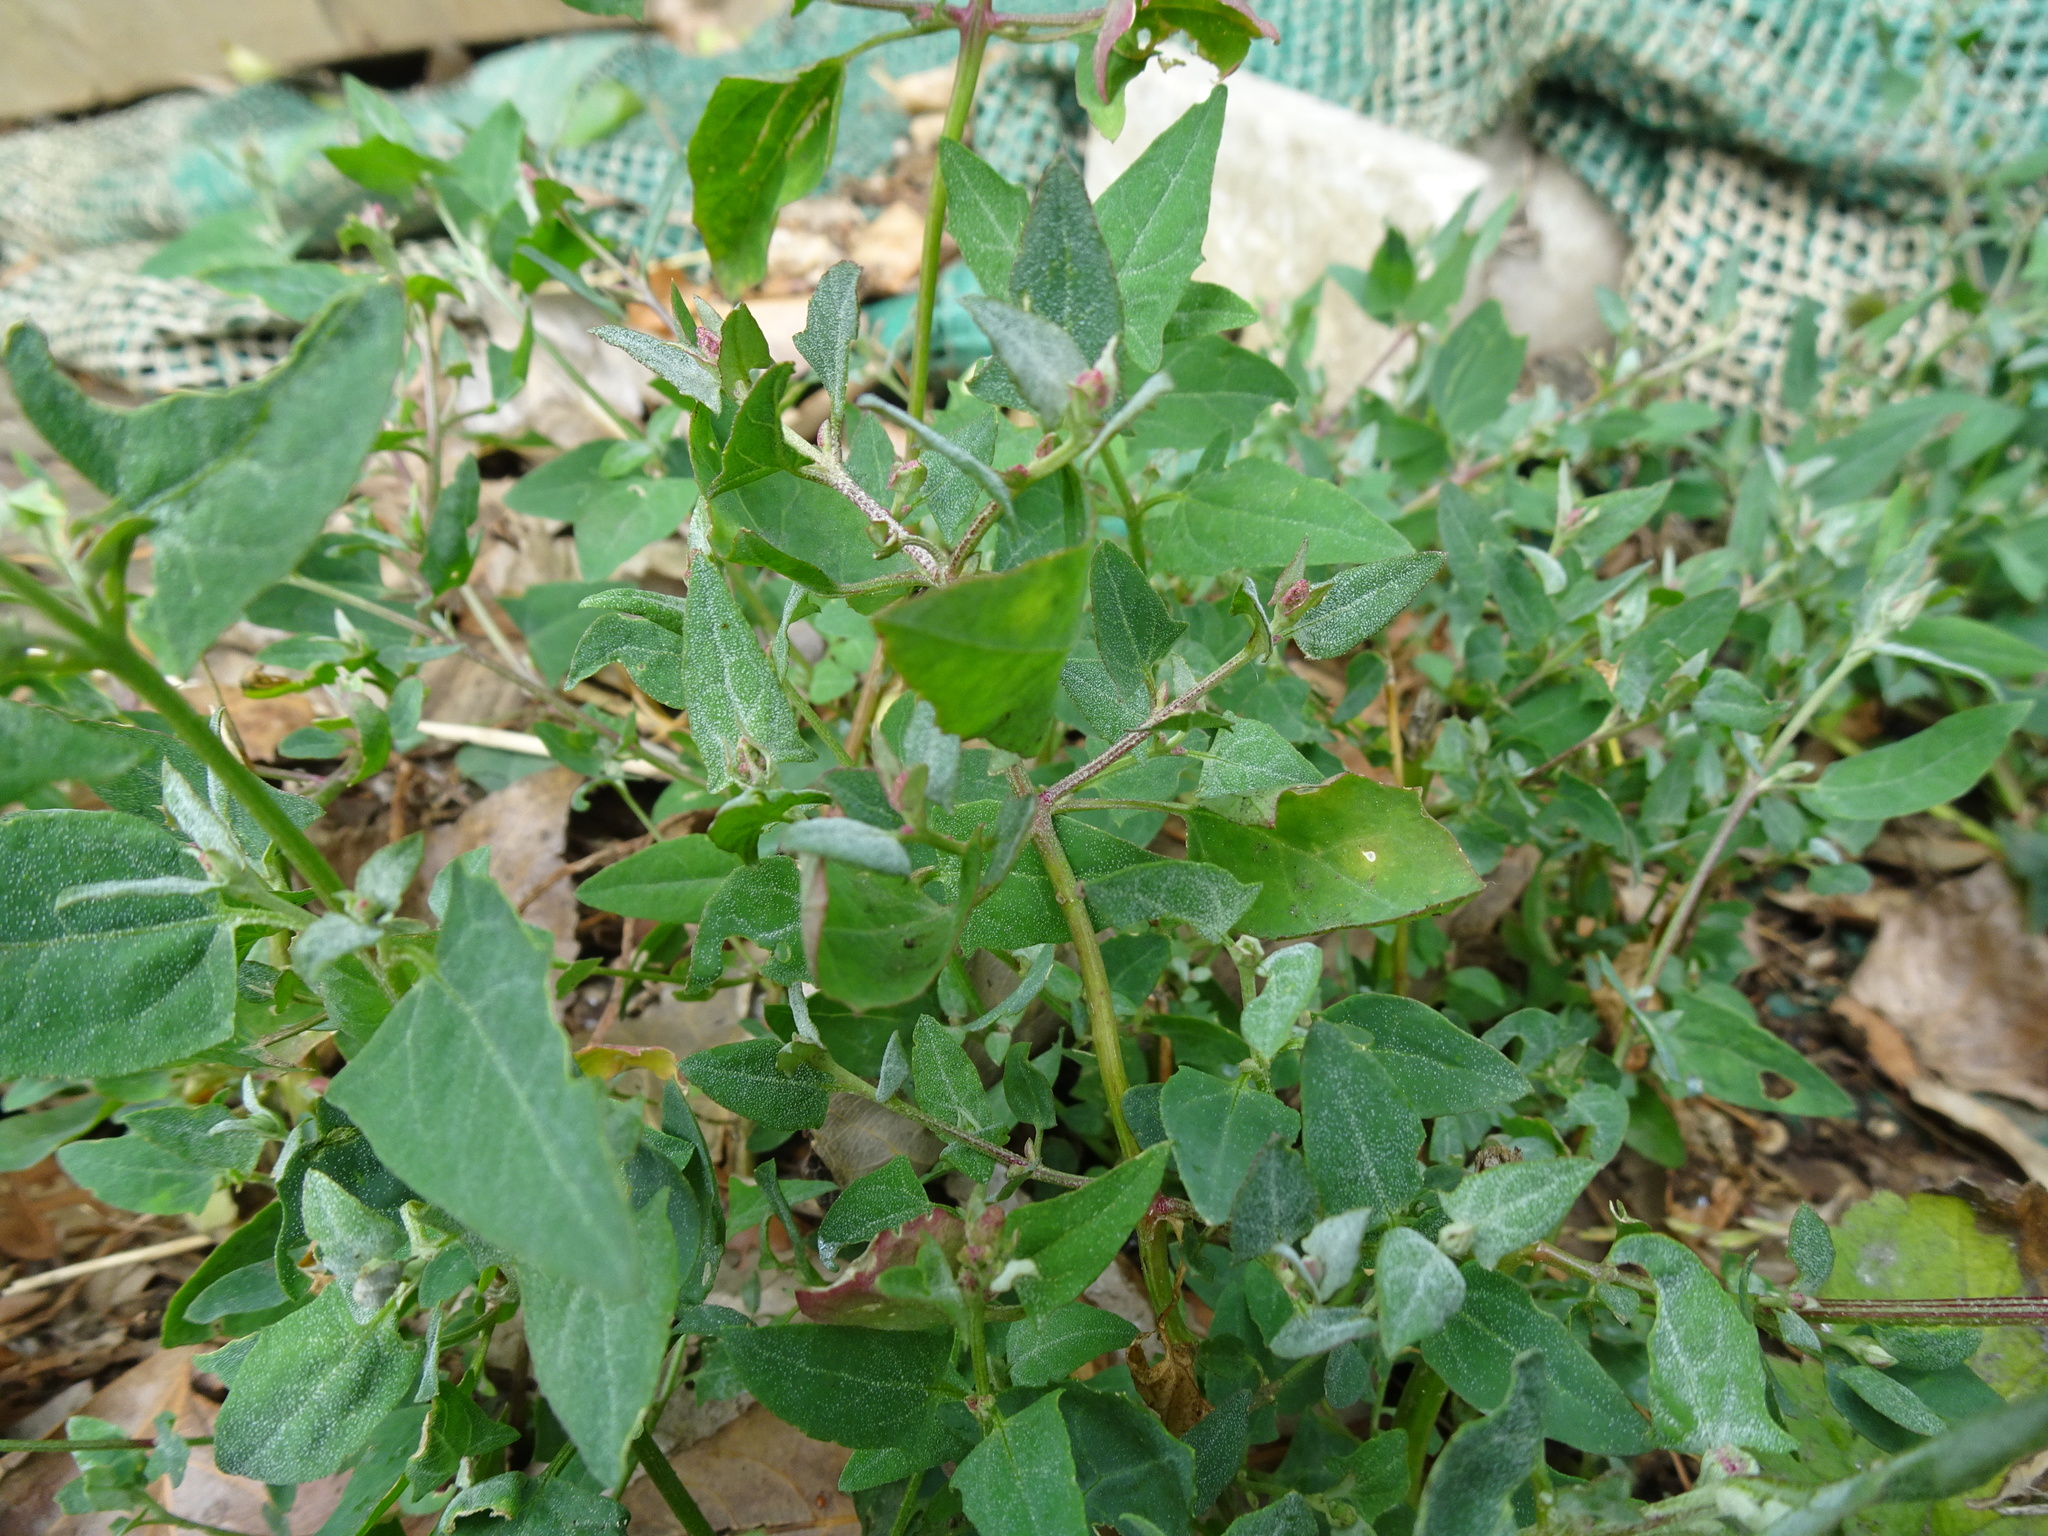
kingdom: Plantae
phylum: Tracheophyta
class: Magnoliopsida
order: Caryophyllales
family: Amaranthaceae
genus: Atriplex
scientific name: Atriplex prostrata
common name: Spear-leaved orache
